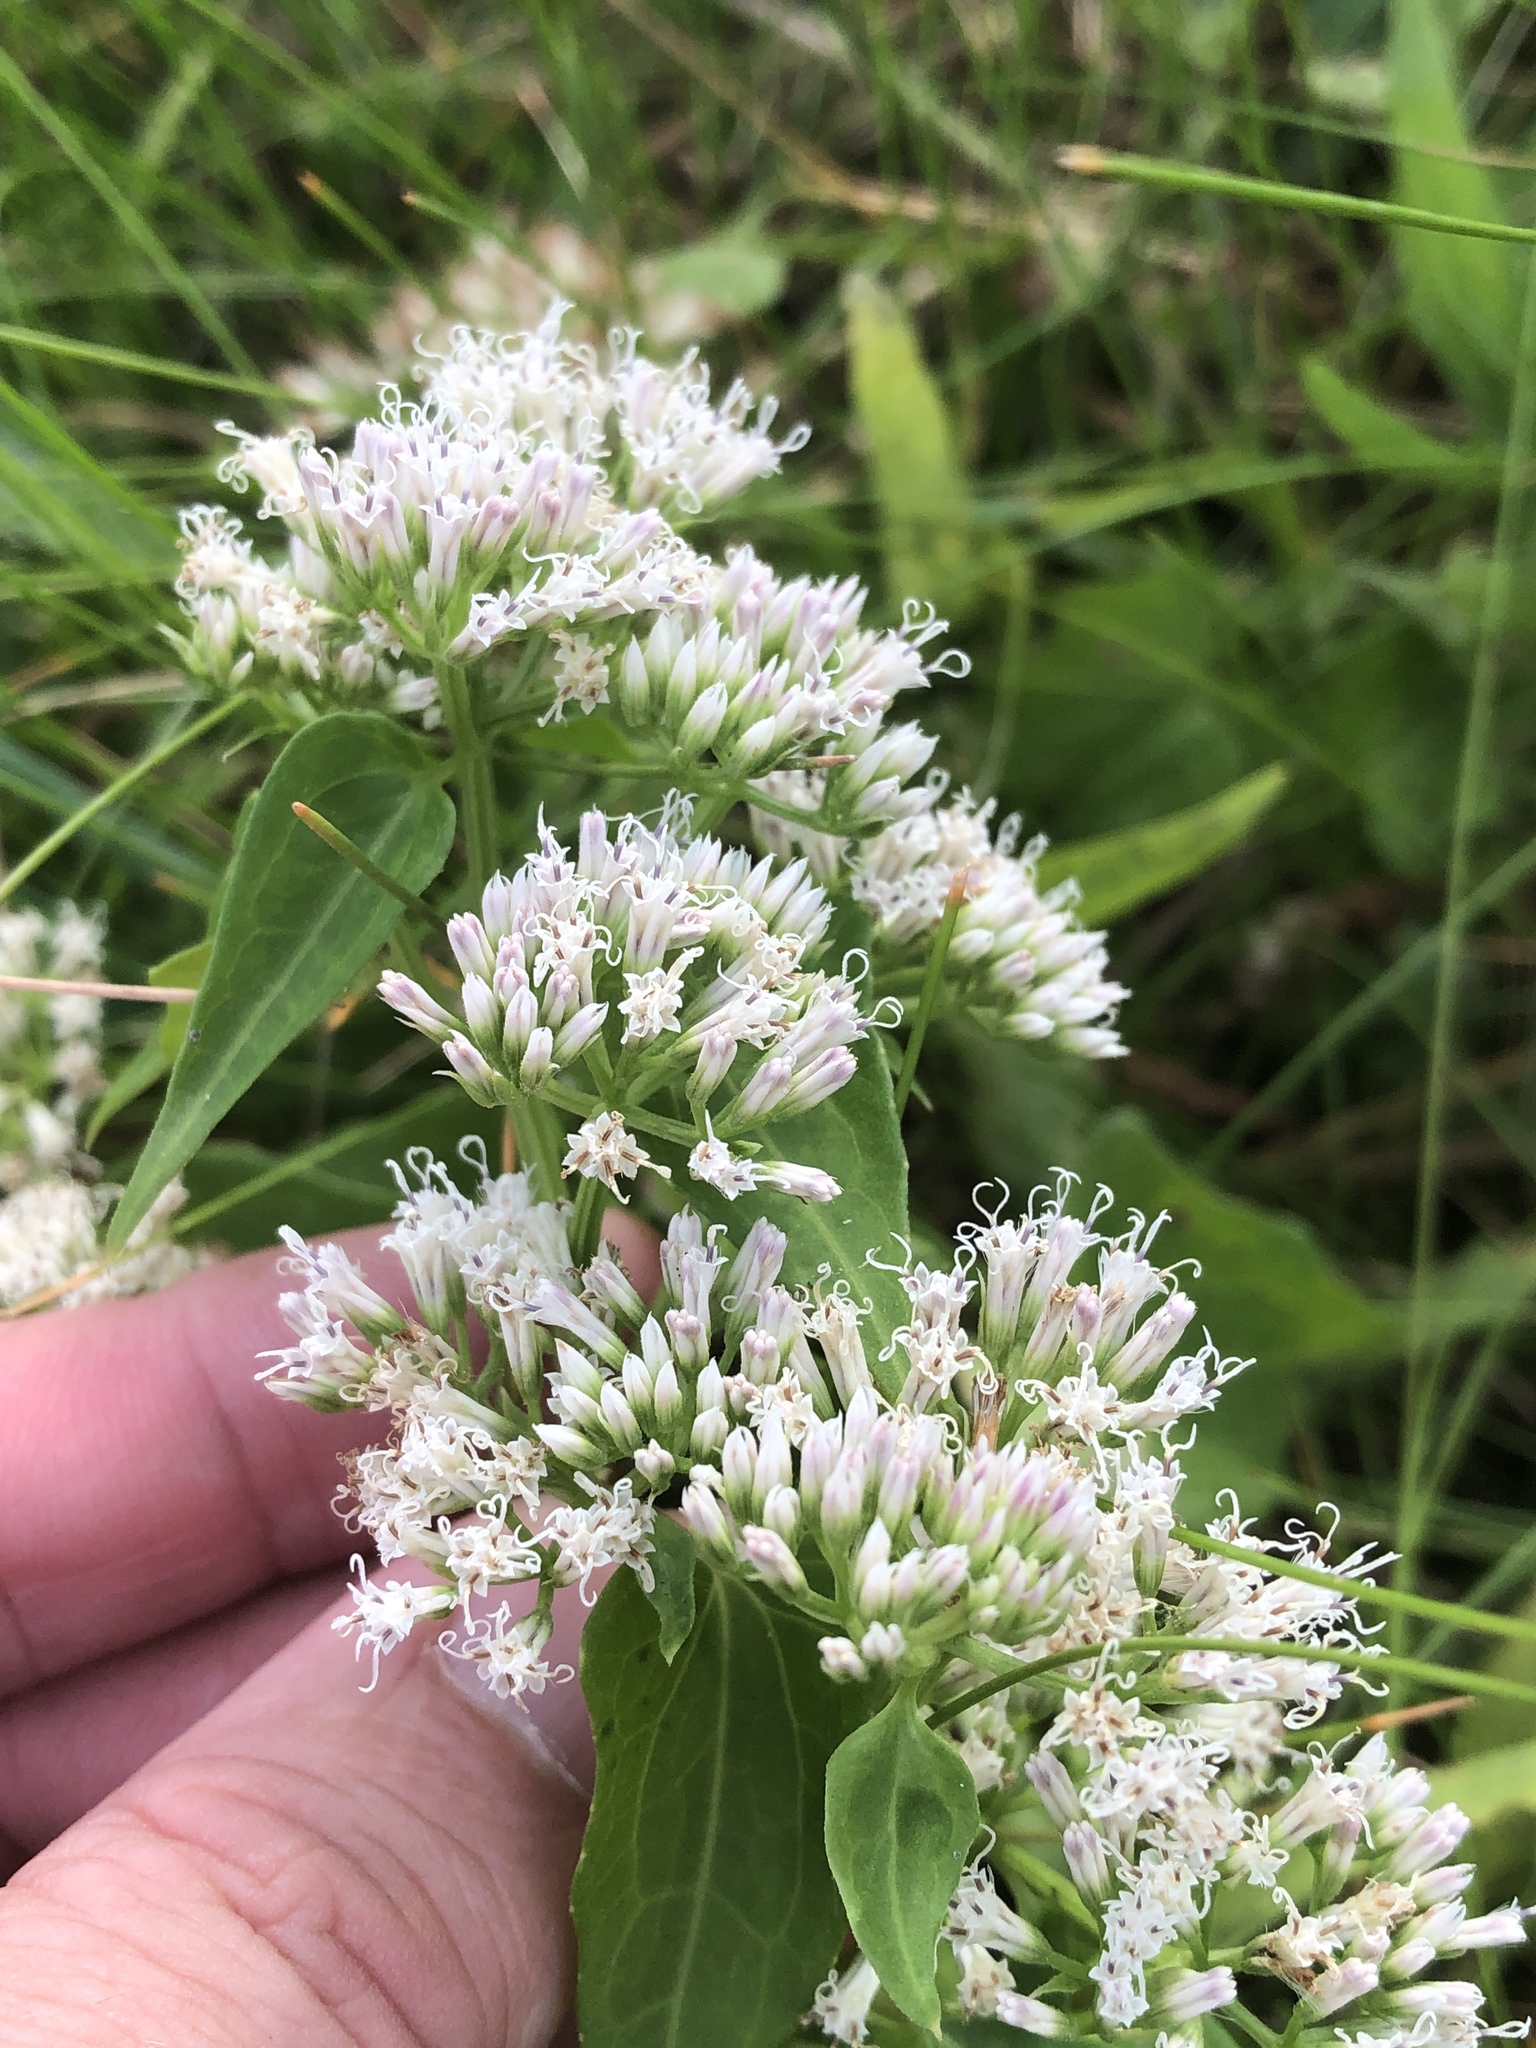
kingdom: Plantae
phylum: Tracheophyta
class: Magnoliopsida
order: Asterales
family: Asteraceae
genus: Mikania
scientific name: Mikania scandens
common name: Climbing hempvine
